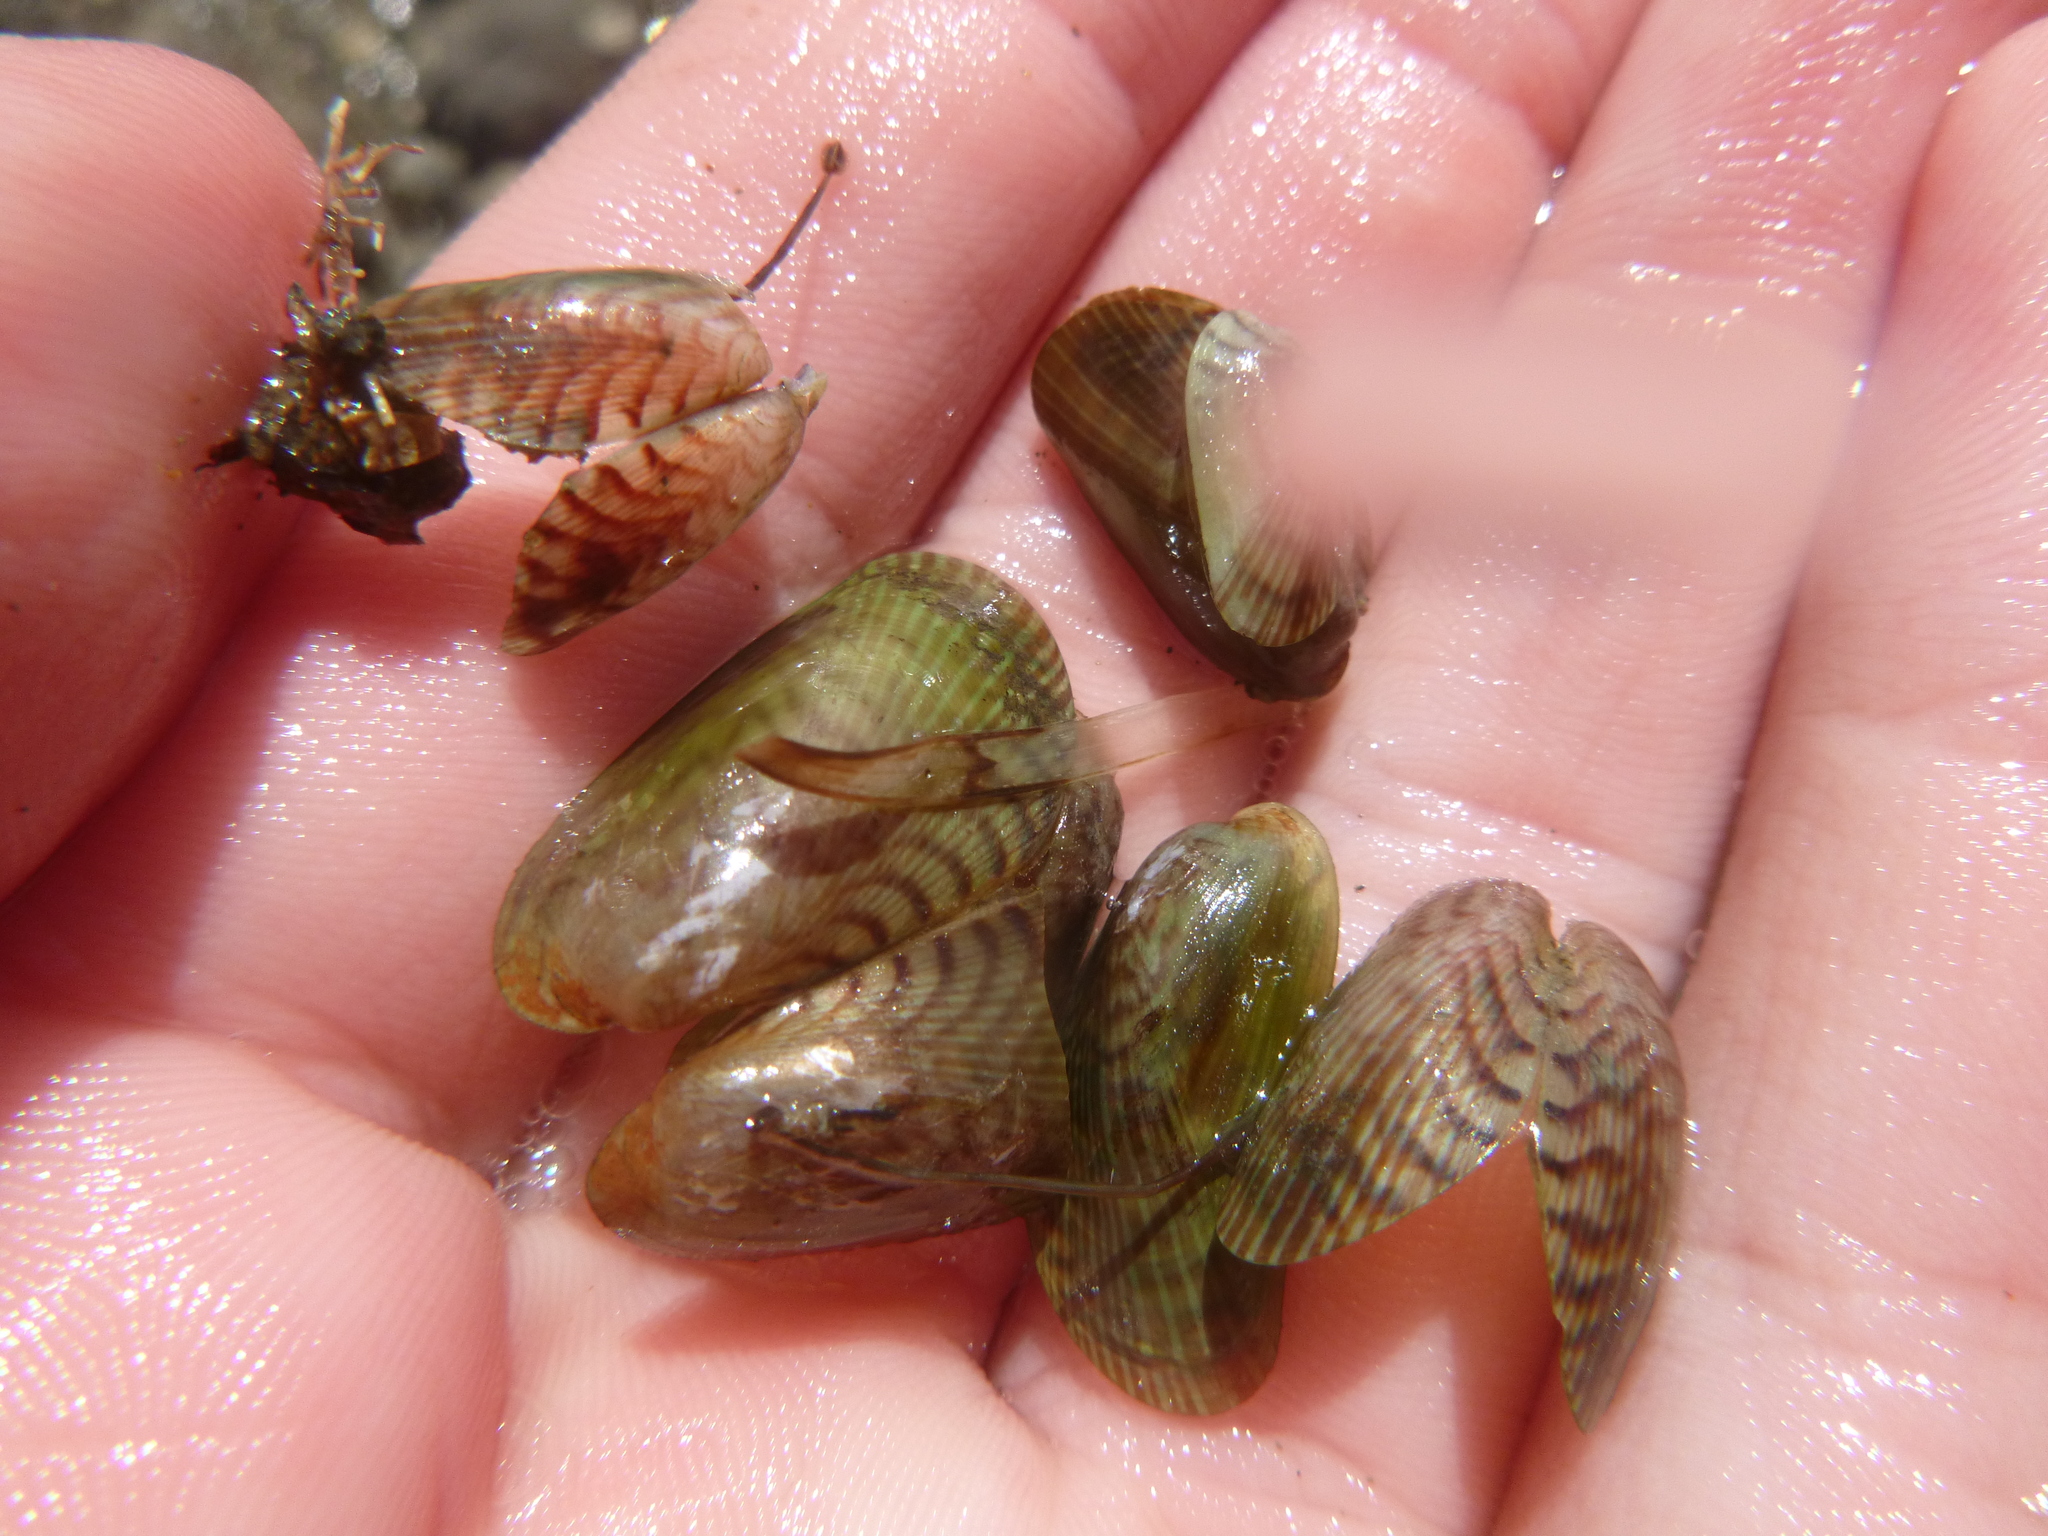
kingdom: Animalia
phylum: Mollusca
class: Bivalvia
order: Mytilida
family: Mytilidae
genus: Arcuatula
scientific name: Arcuatula senhousia
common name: Asian mussel
